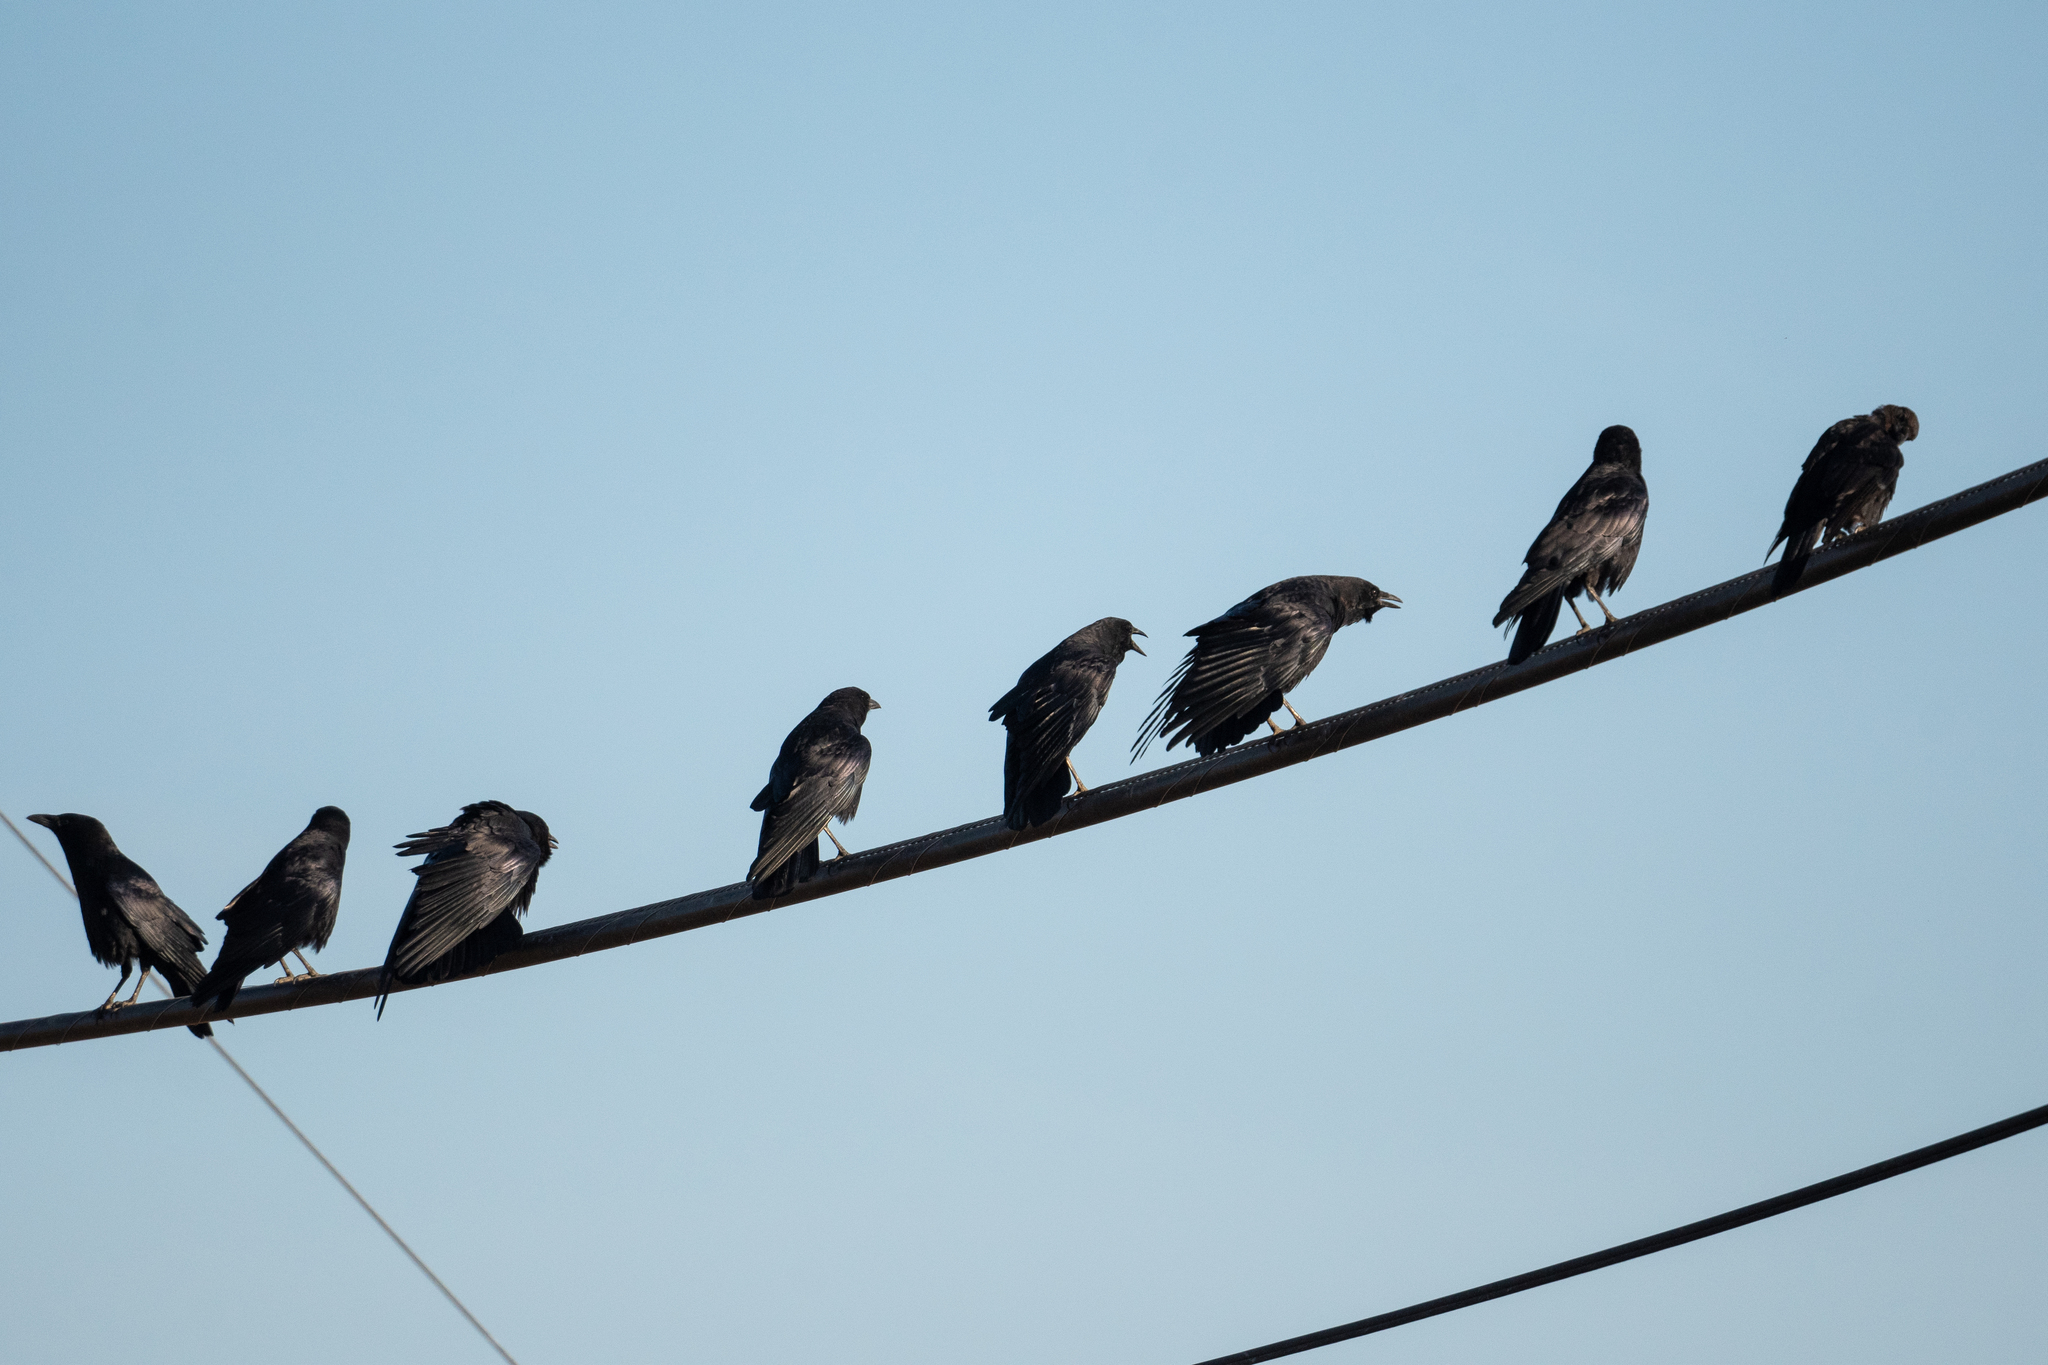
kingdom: Animalia
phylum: Chordata
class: Aves
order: Passeriformes
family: Corvidae
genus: Corvus
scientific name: Corvus brachyrhynchos
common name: American crow
